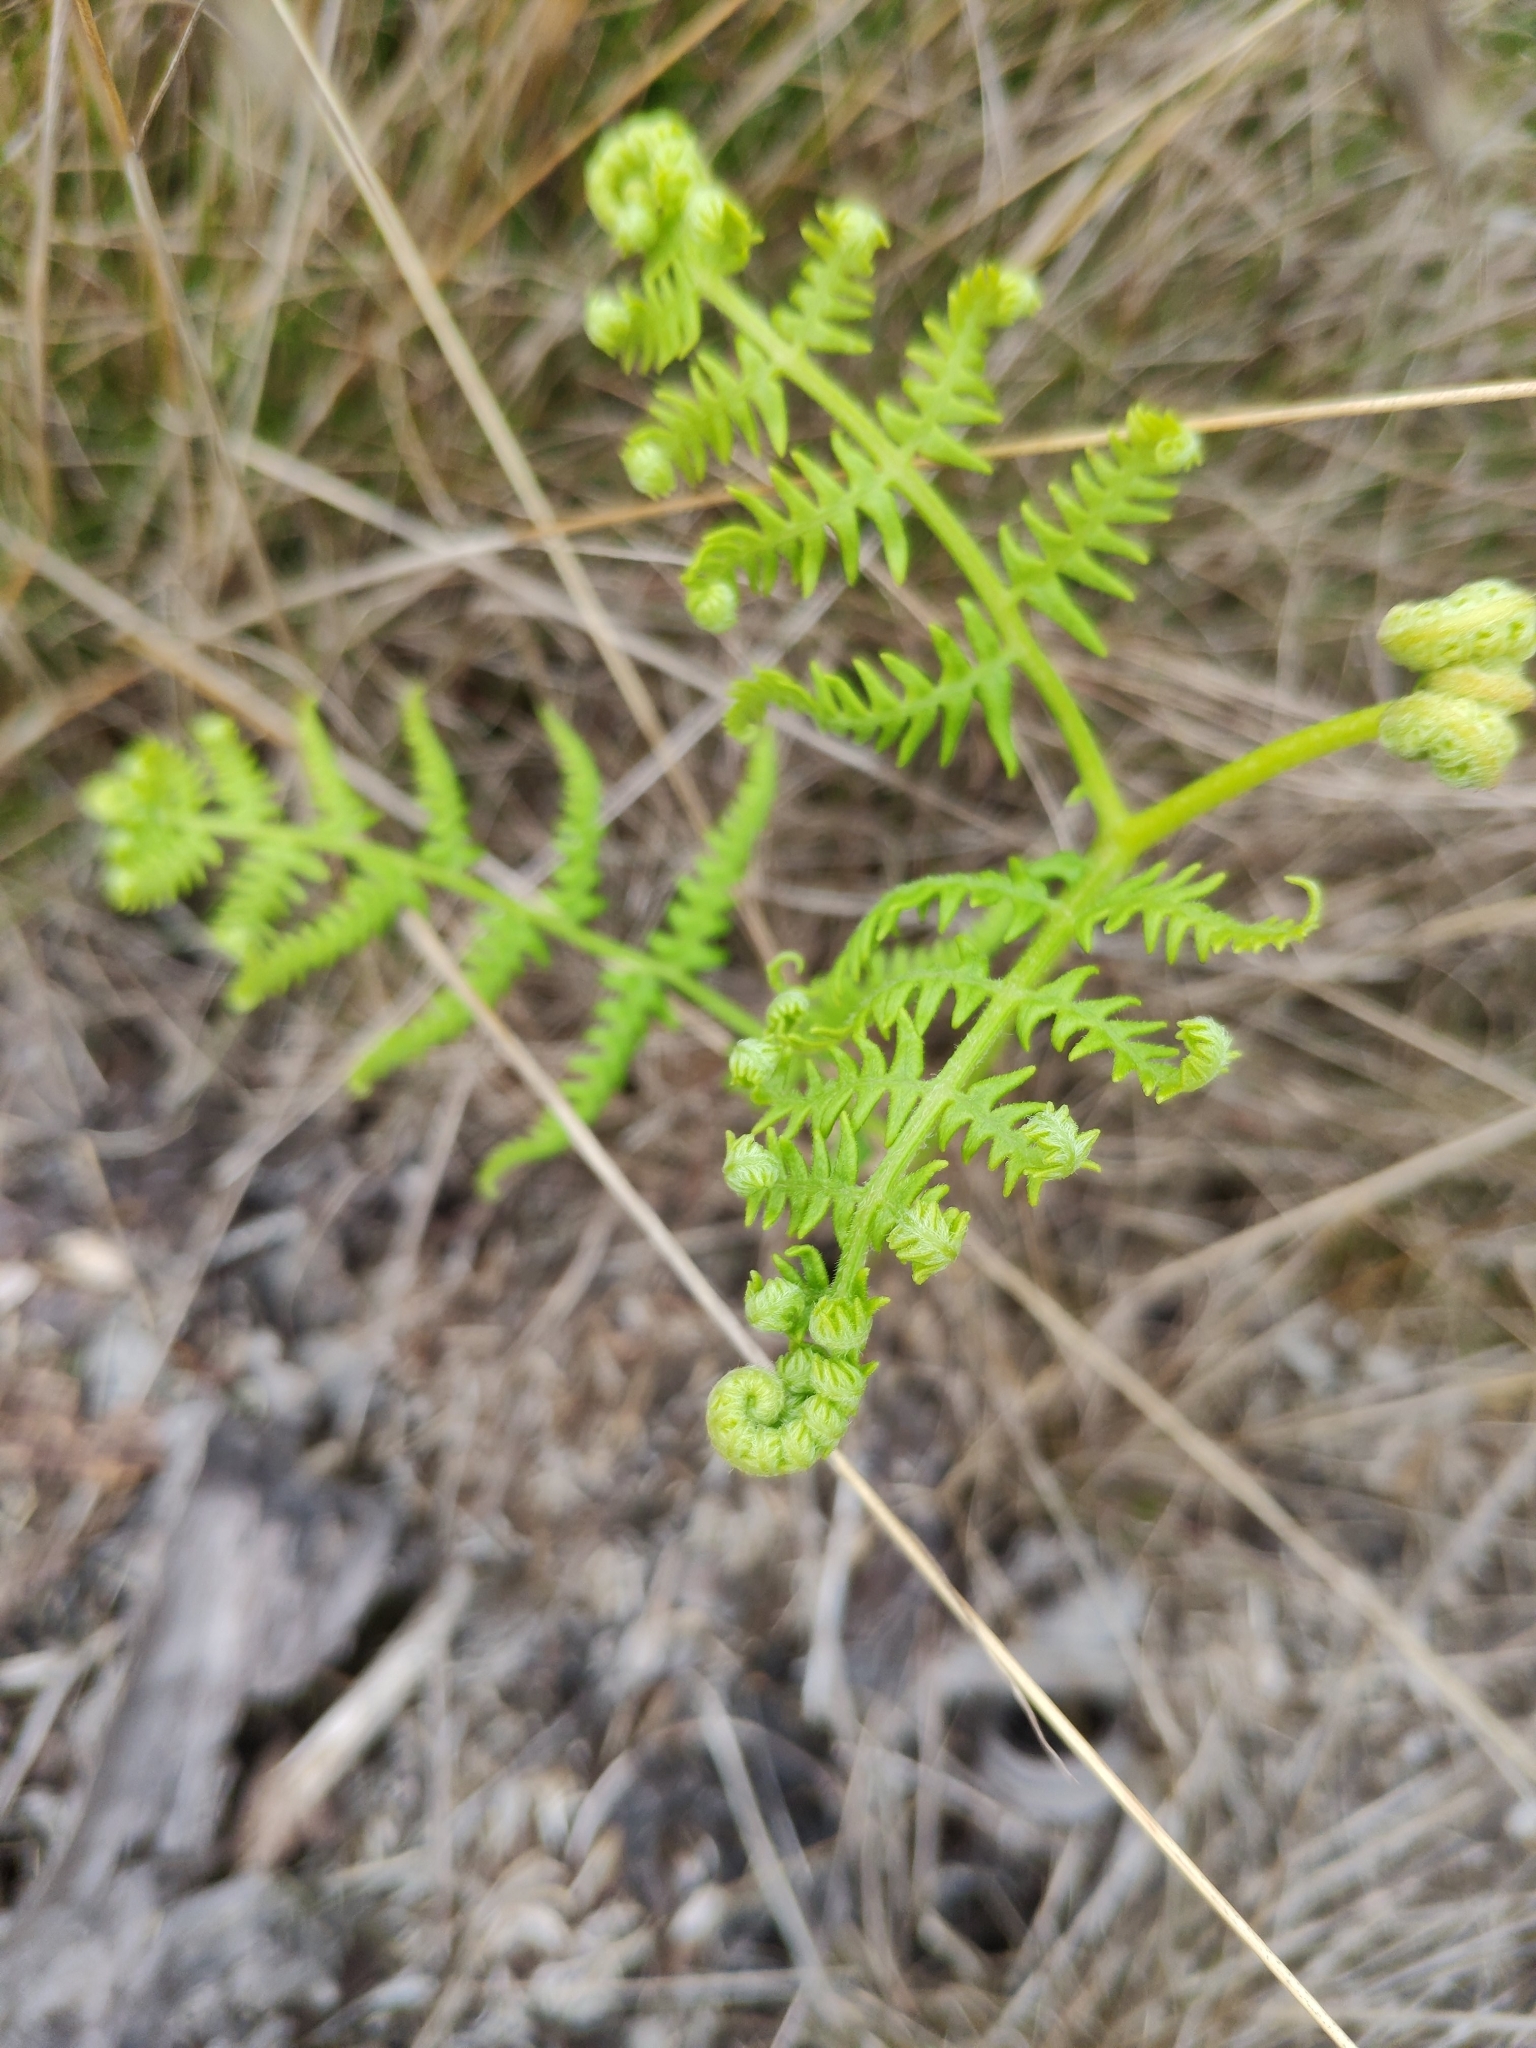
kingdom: Plantae
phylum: Tracheophyta
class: Polypodiopsida
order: Polypodiales
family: Dennstaedtiaceae
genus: Pteridium
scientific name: Pteridium aquilinum
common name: Bracken
